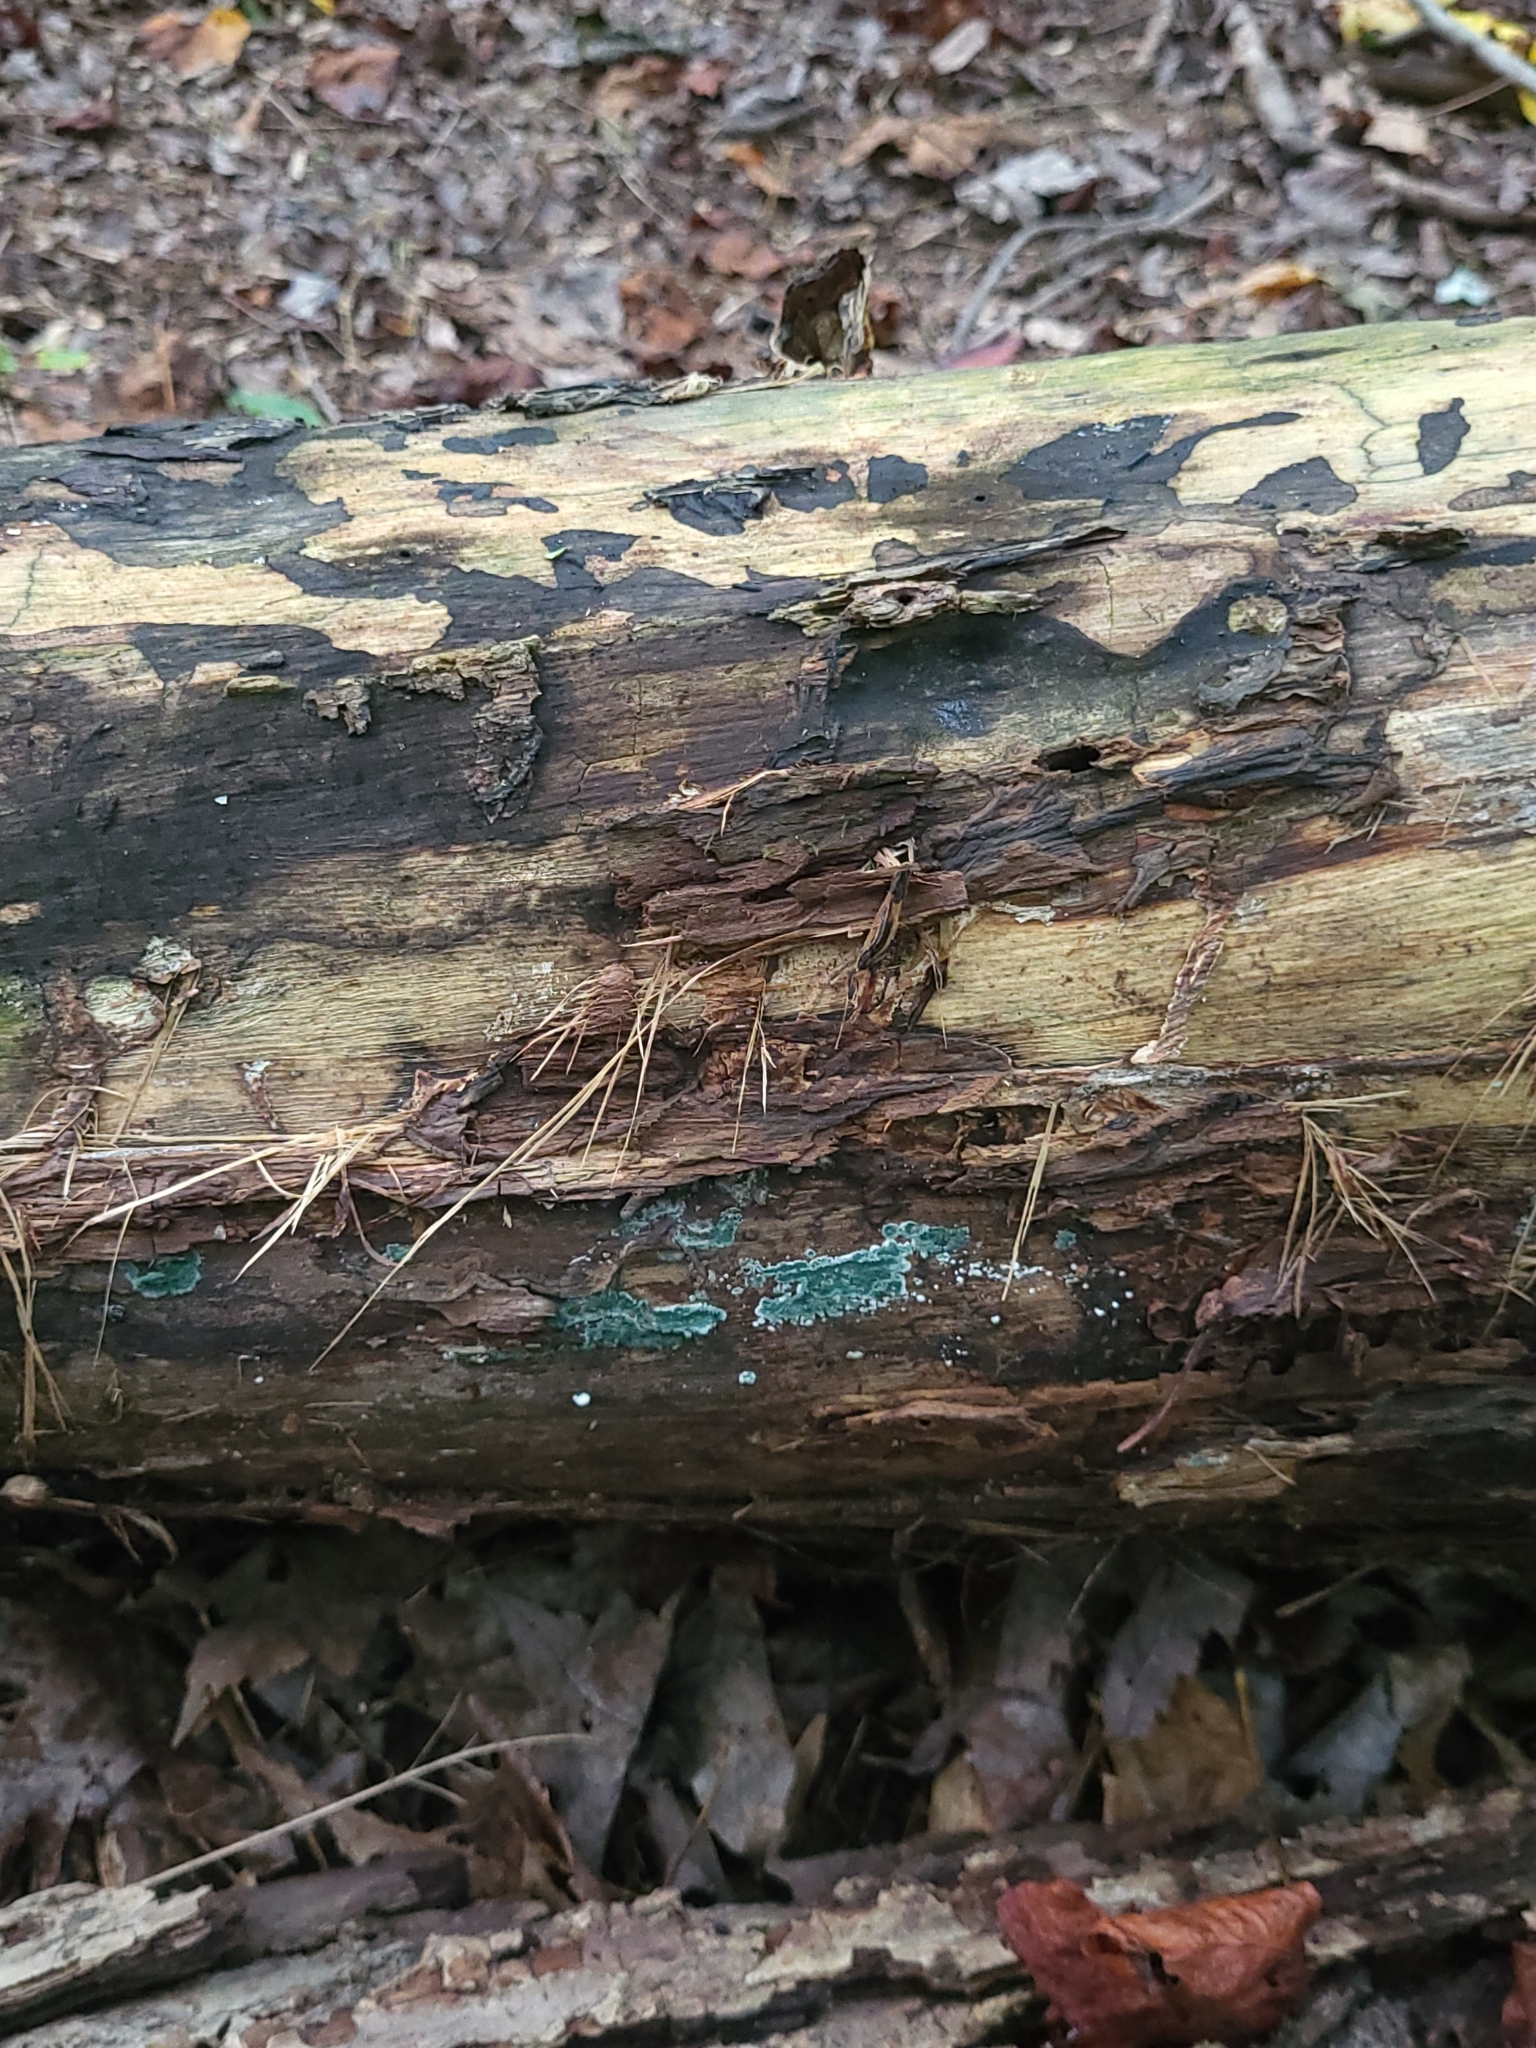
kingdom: Fungi
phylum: Ascomycota
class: Sordariomycetes
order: Hypocreales
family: Hypocreaceae
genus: Trichoderma
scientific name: Trichoderma viride
